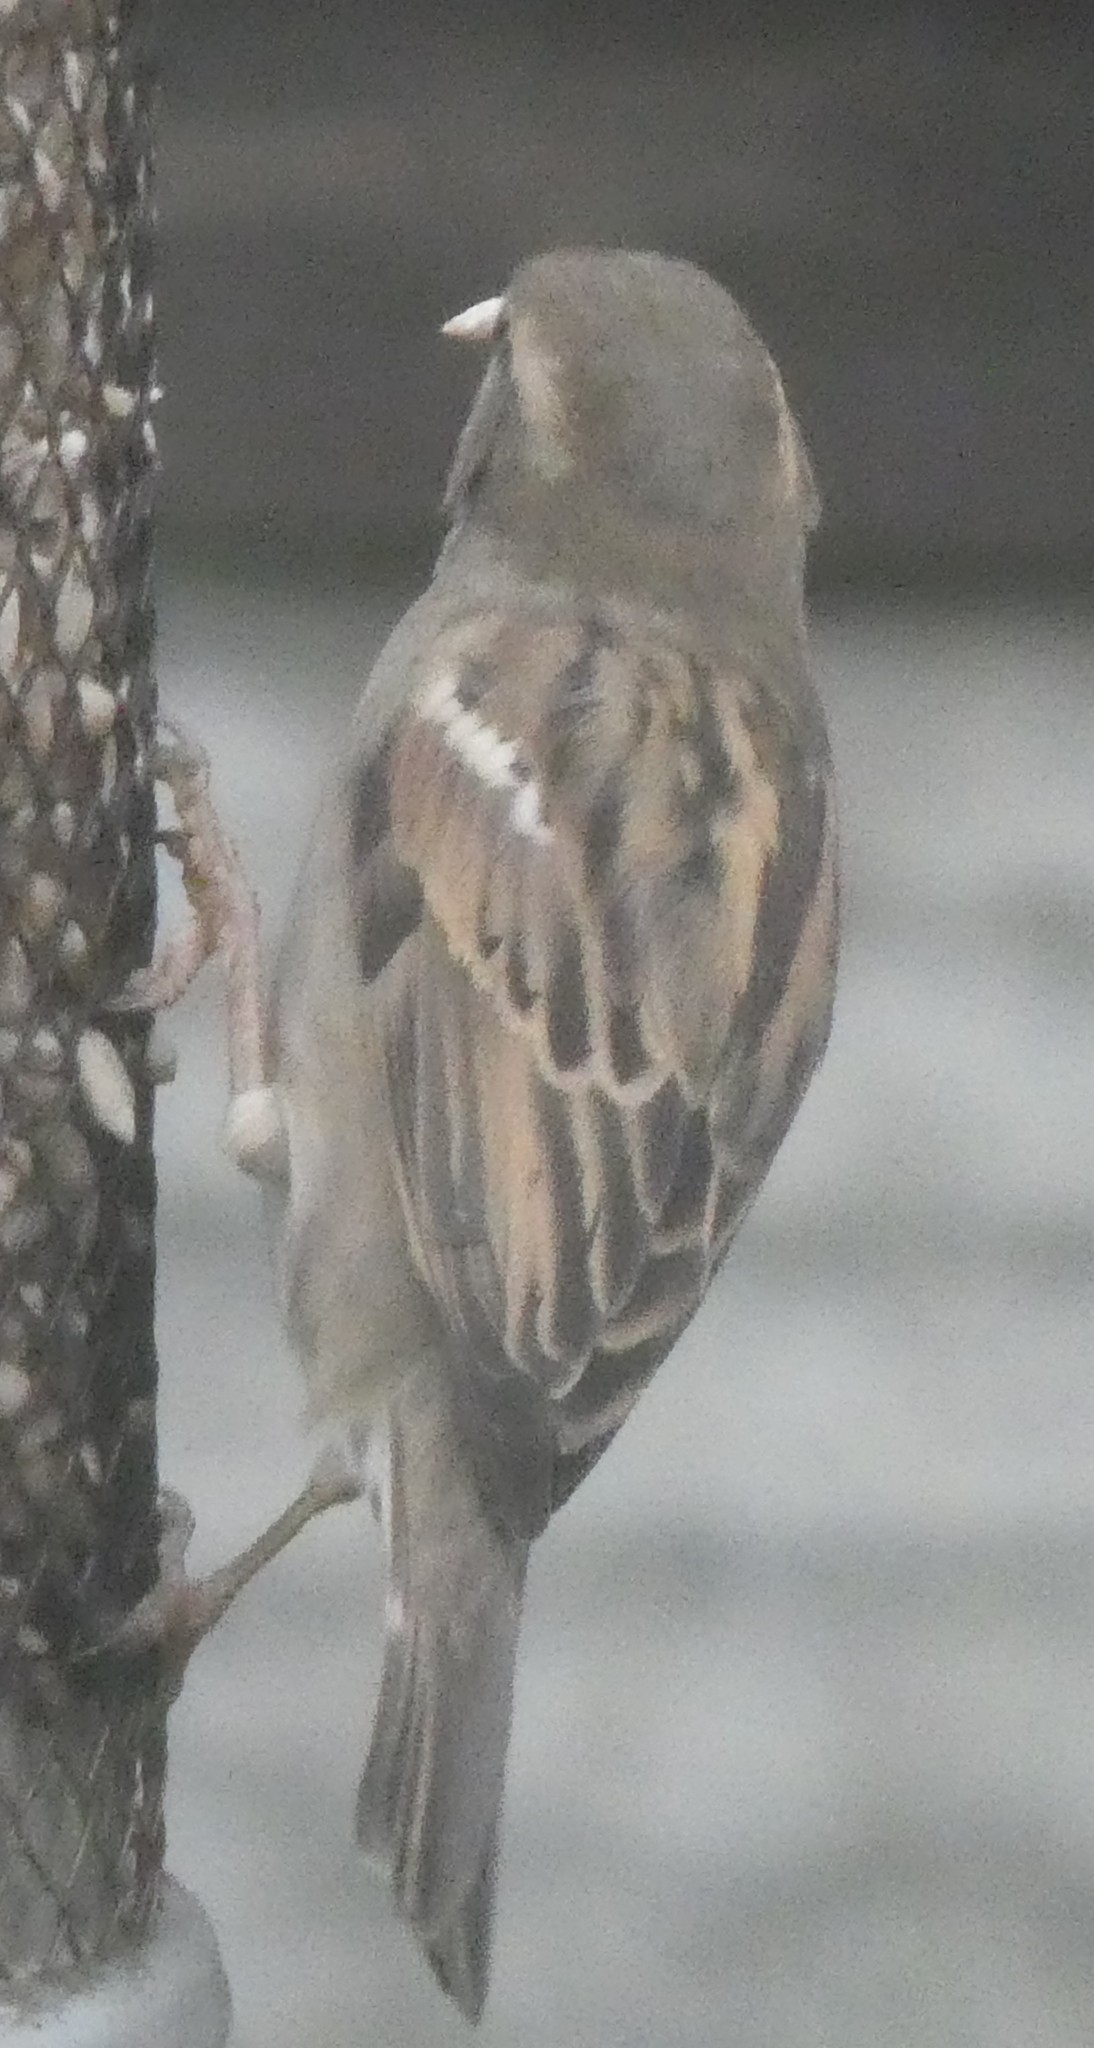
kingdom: Animalia
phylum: Chordata
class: Aves
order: Passeriformes
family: Passeridae
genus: Passer
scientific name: Passer domesticus
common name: House sparrow
